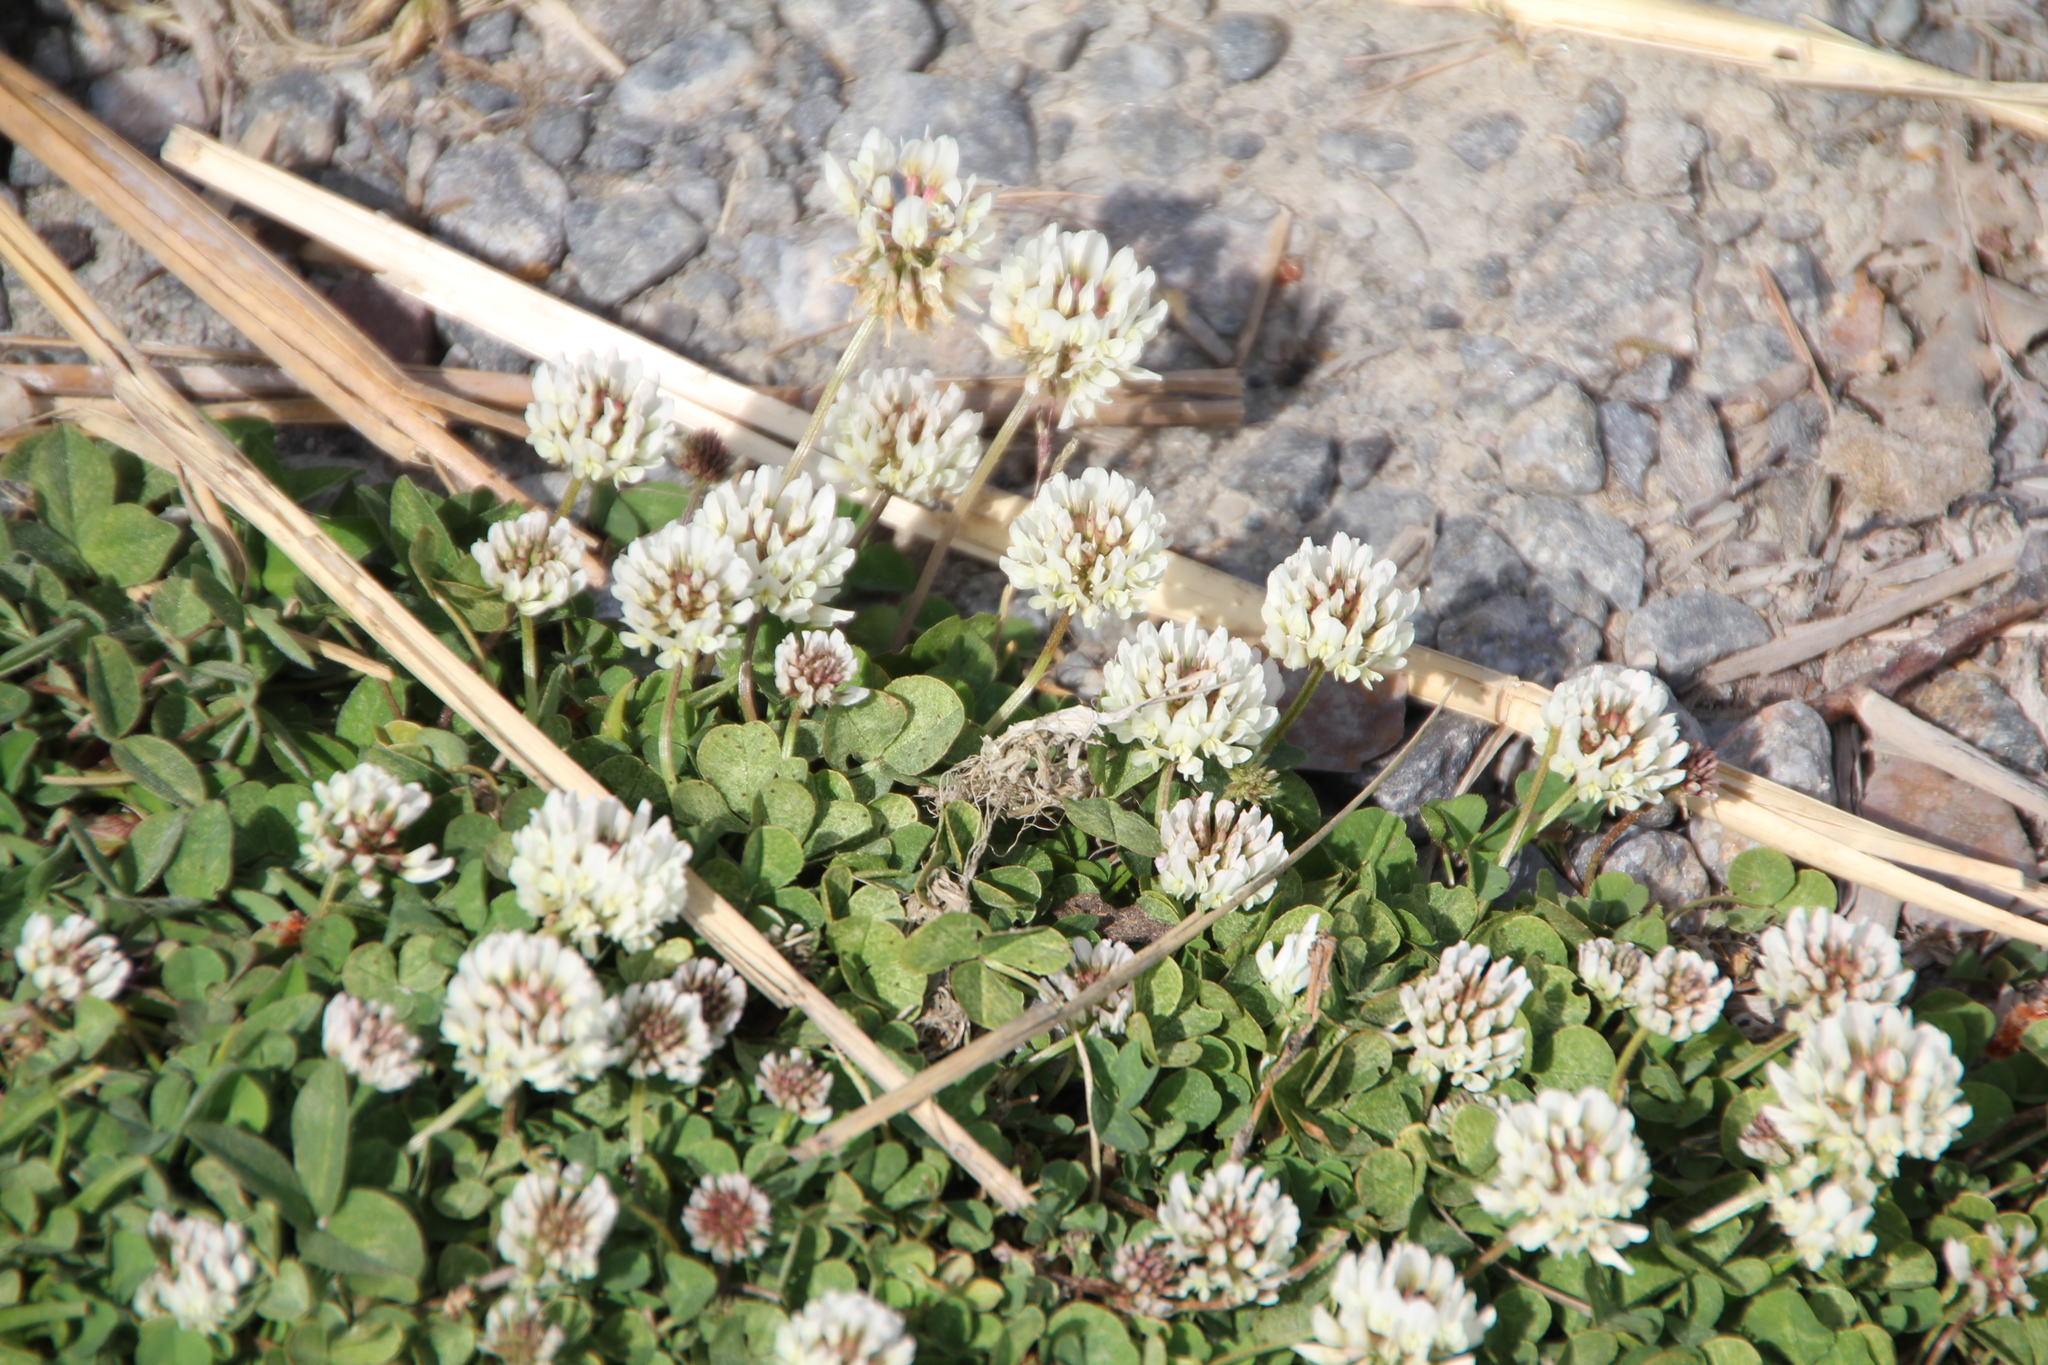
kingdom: Plantae
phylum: Tracheophyta
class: Magnoliopsida
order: Fabales
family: Fabaceae
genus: Trifolium
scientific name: Trifolium repens
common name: White clover
